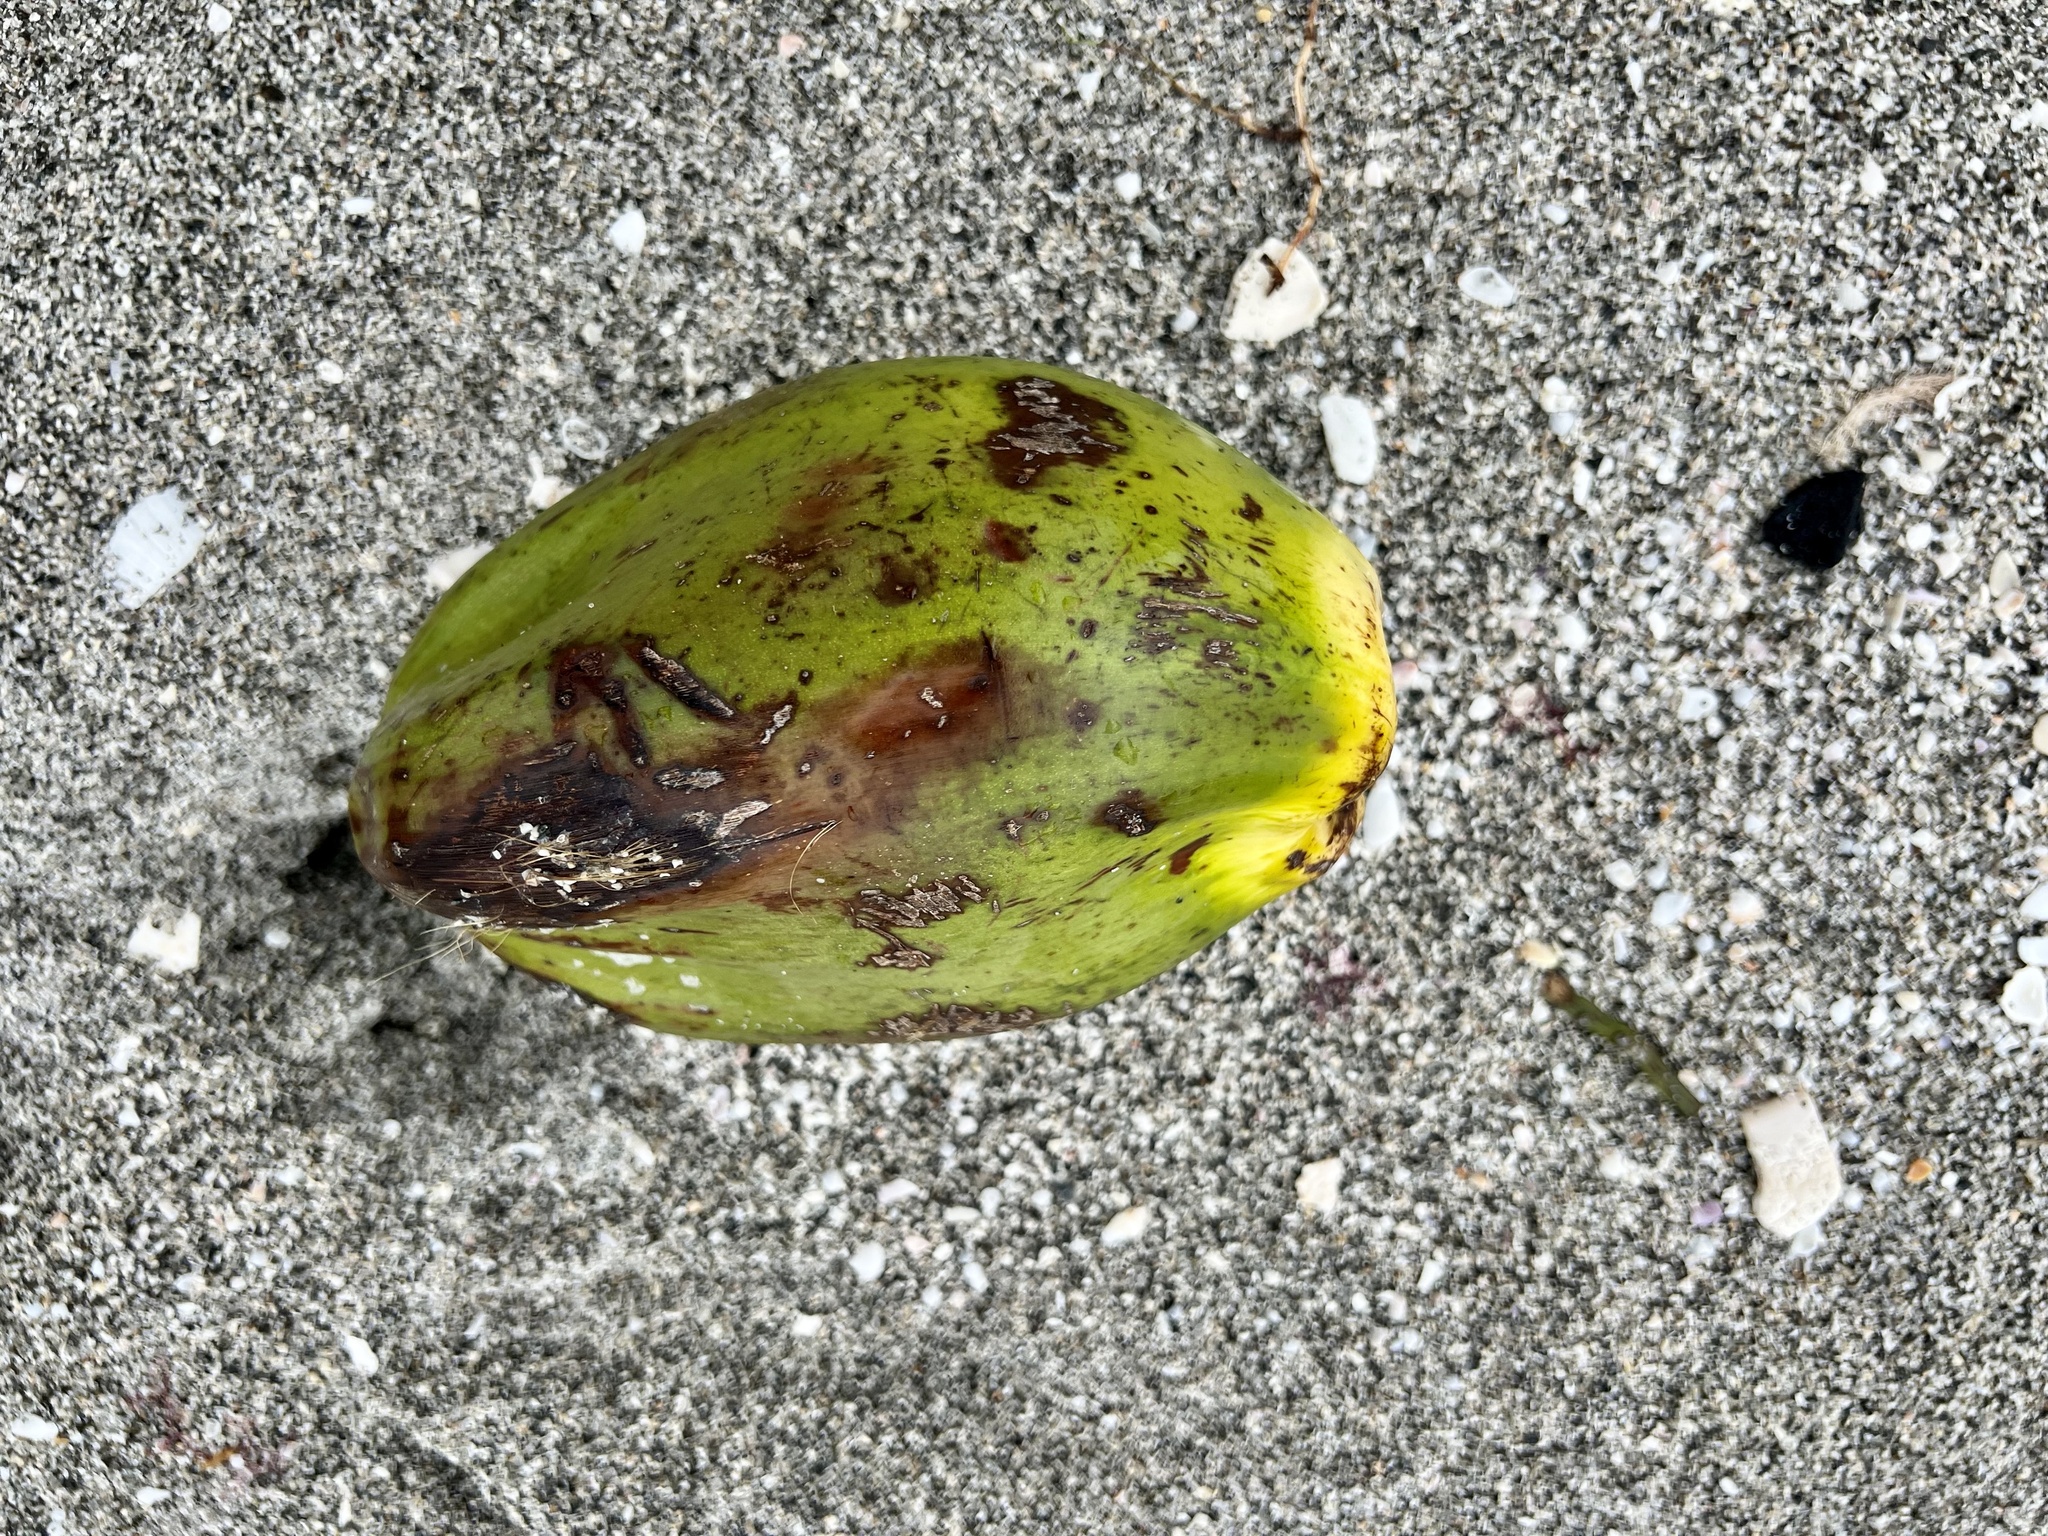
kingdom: Plantae
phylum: Tracheophyta
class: Liliopsida
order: Arecales
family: Arecaceae
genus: Cocos
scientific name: Cocos nucifera
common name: Coconut palm
